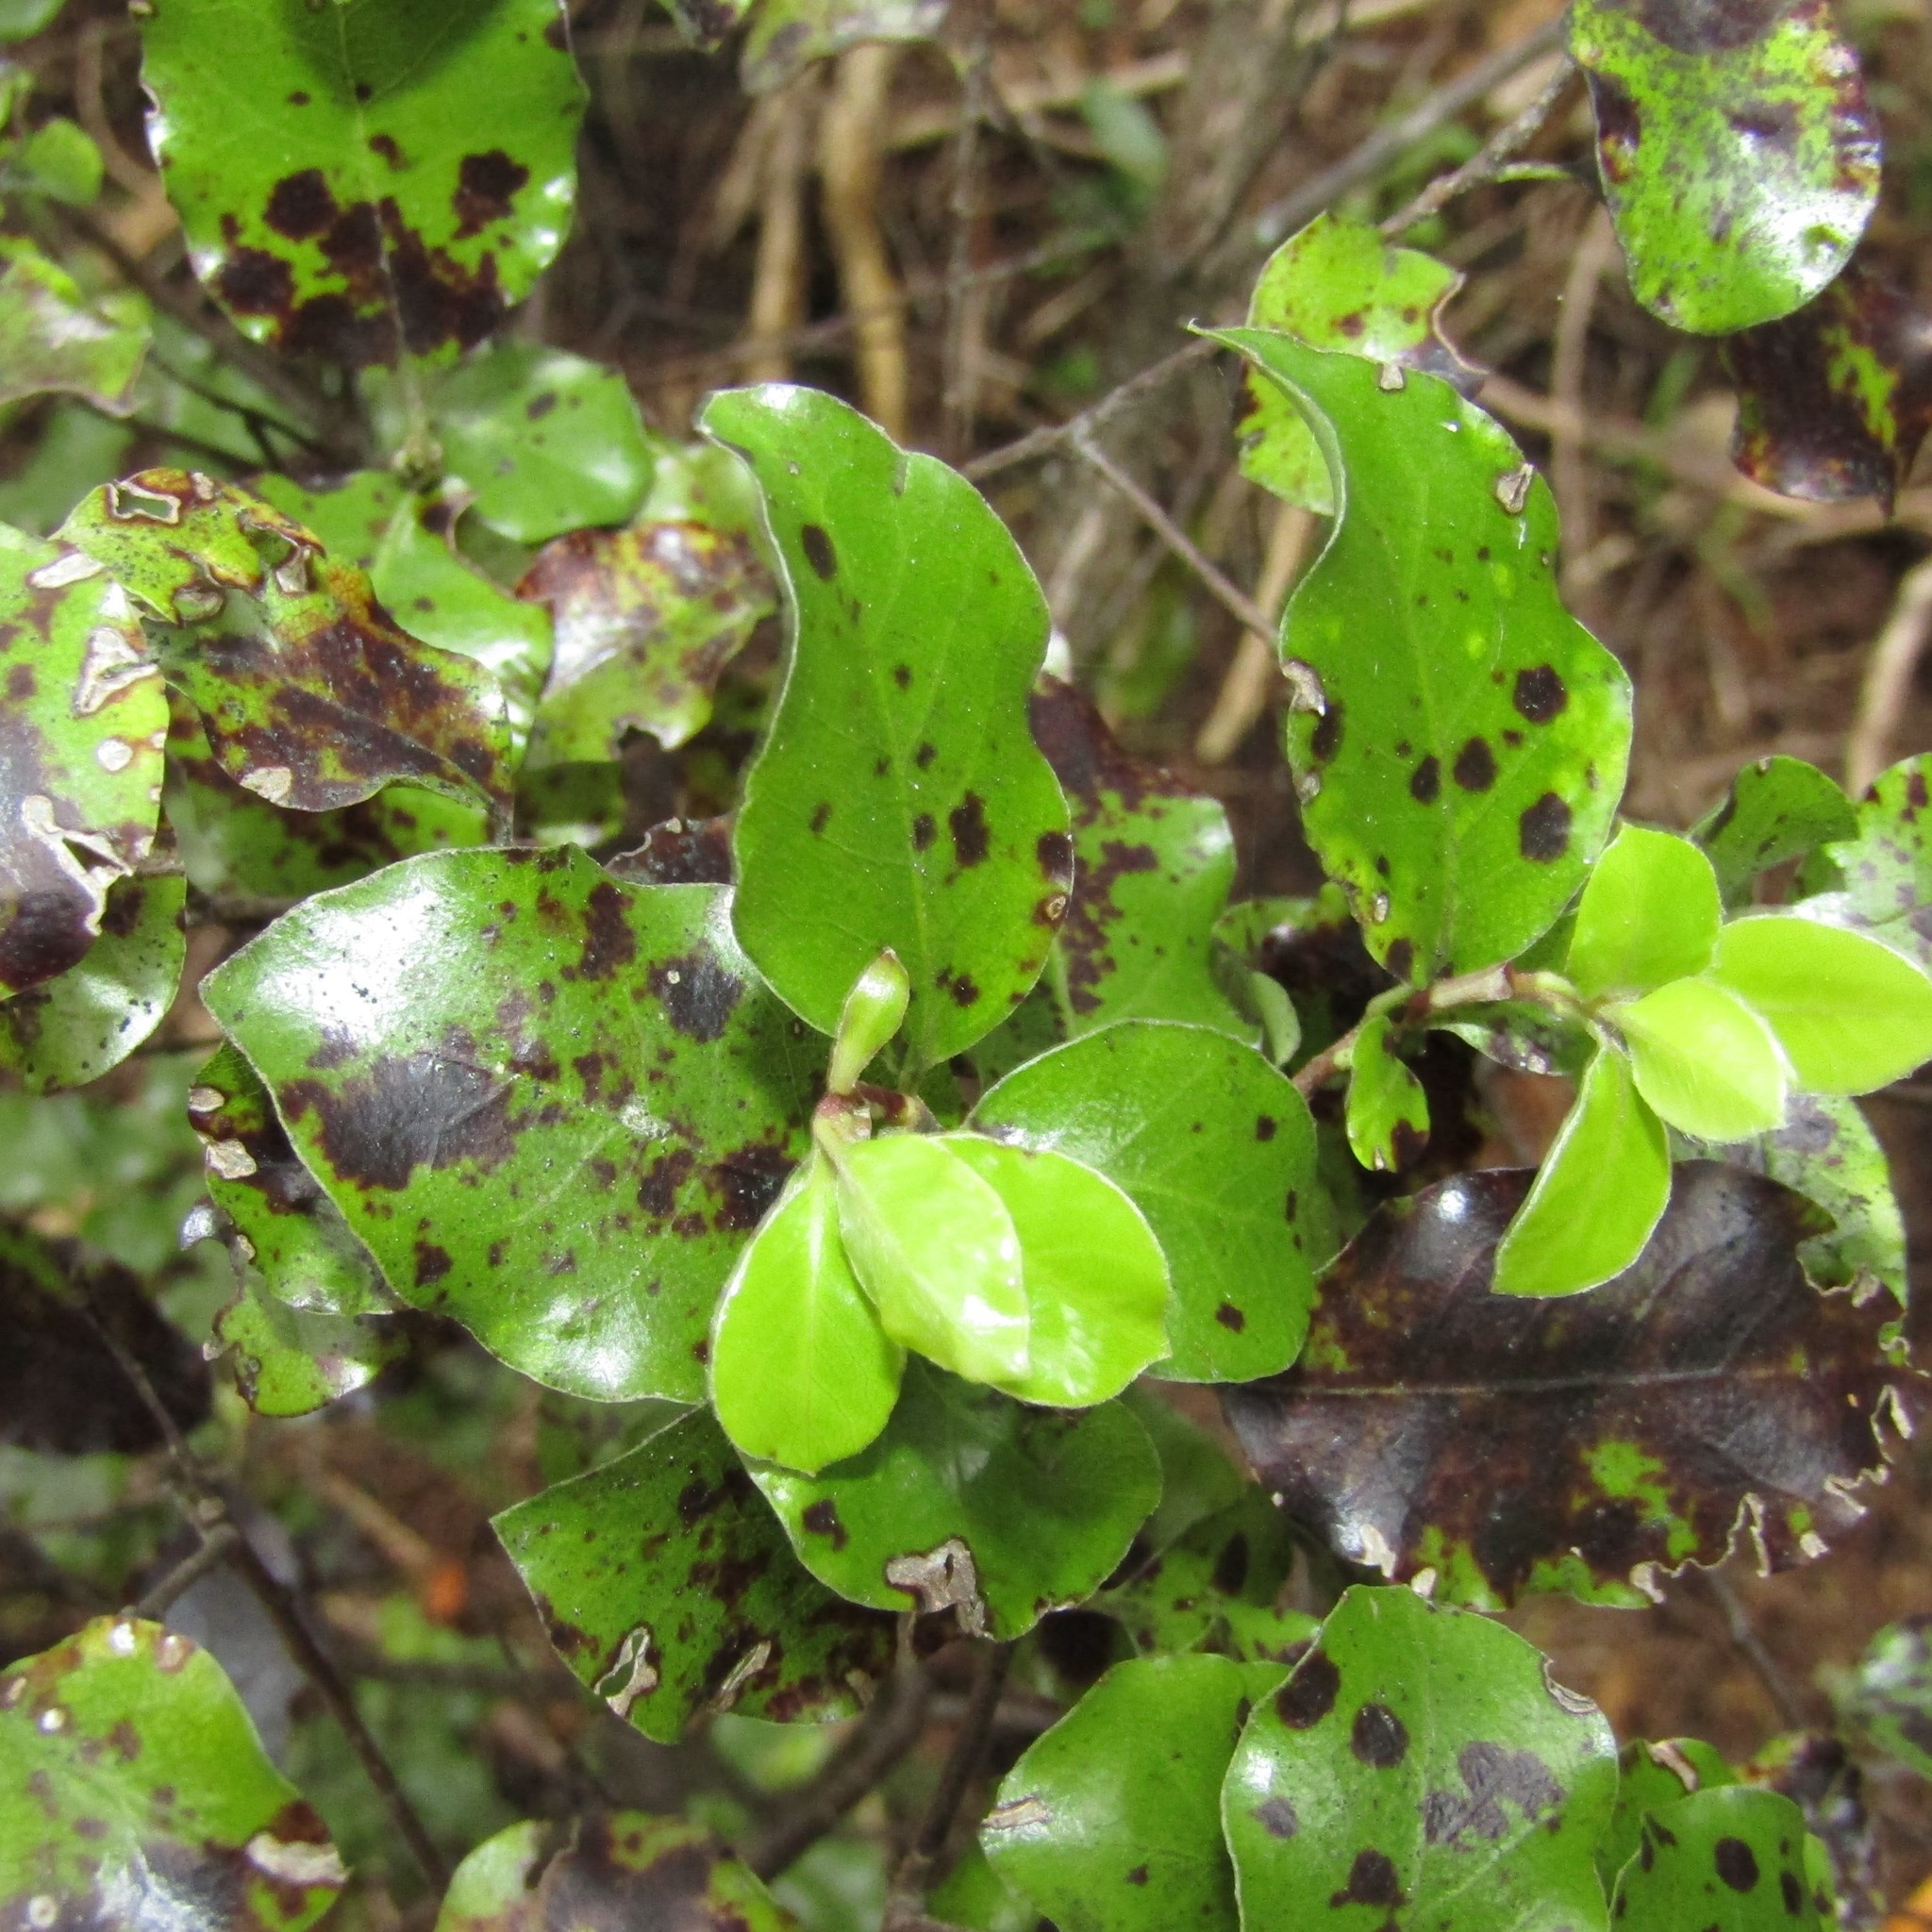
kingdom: Plantae
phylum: Tracheophyta
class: Magnoliopsida
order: Apiales
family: Pittosporaceae
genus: Pittosporum
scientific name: Pittosporum tenuifolium
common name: Kohuhu
